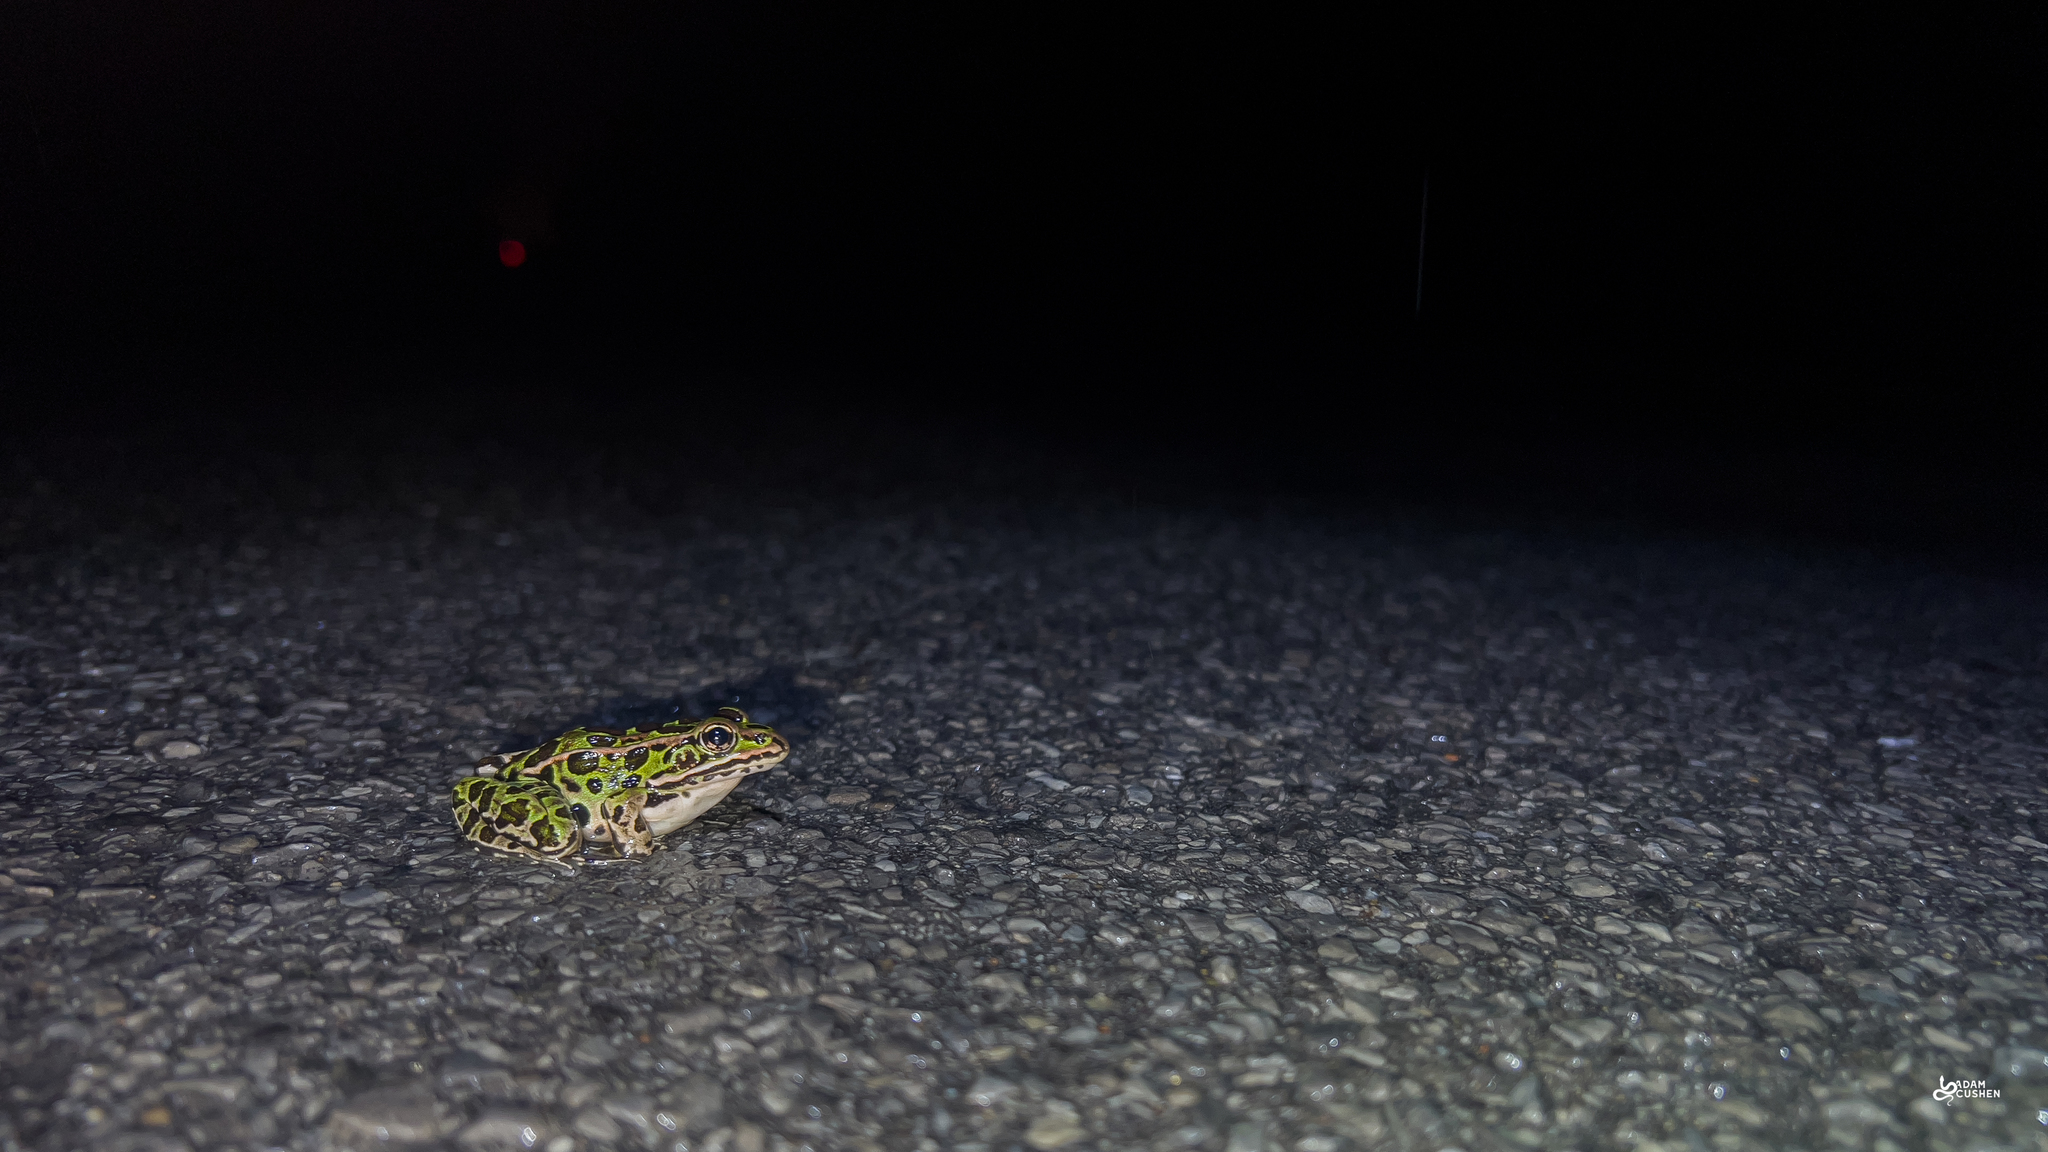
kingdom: Animalia
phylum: Chordata
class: Amphibia
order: Anura
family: Ranidae
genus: Lithobates
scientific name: Lithobates pipiens
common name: Northern leopard frog
